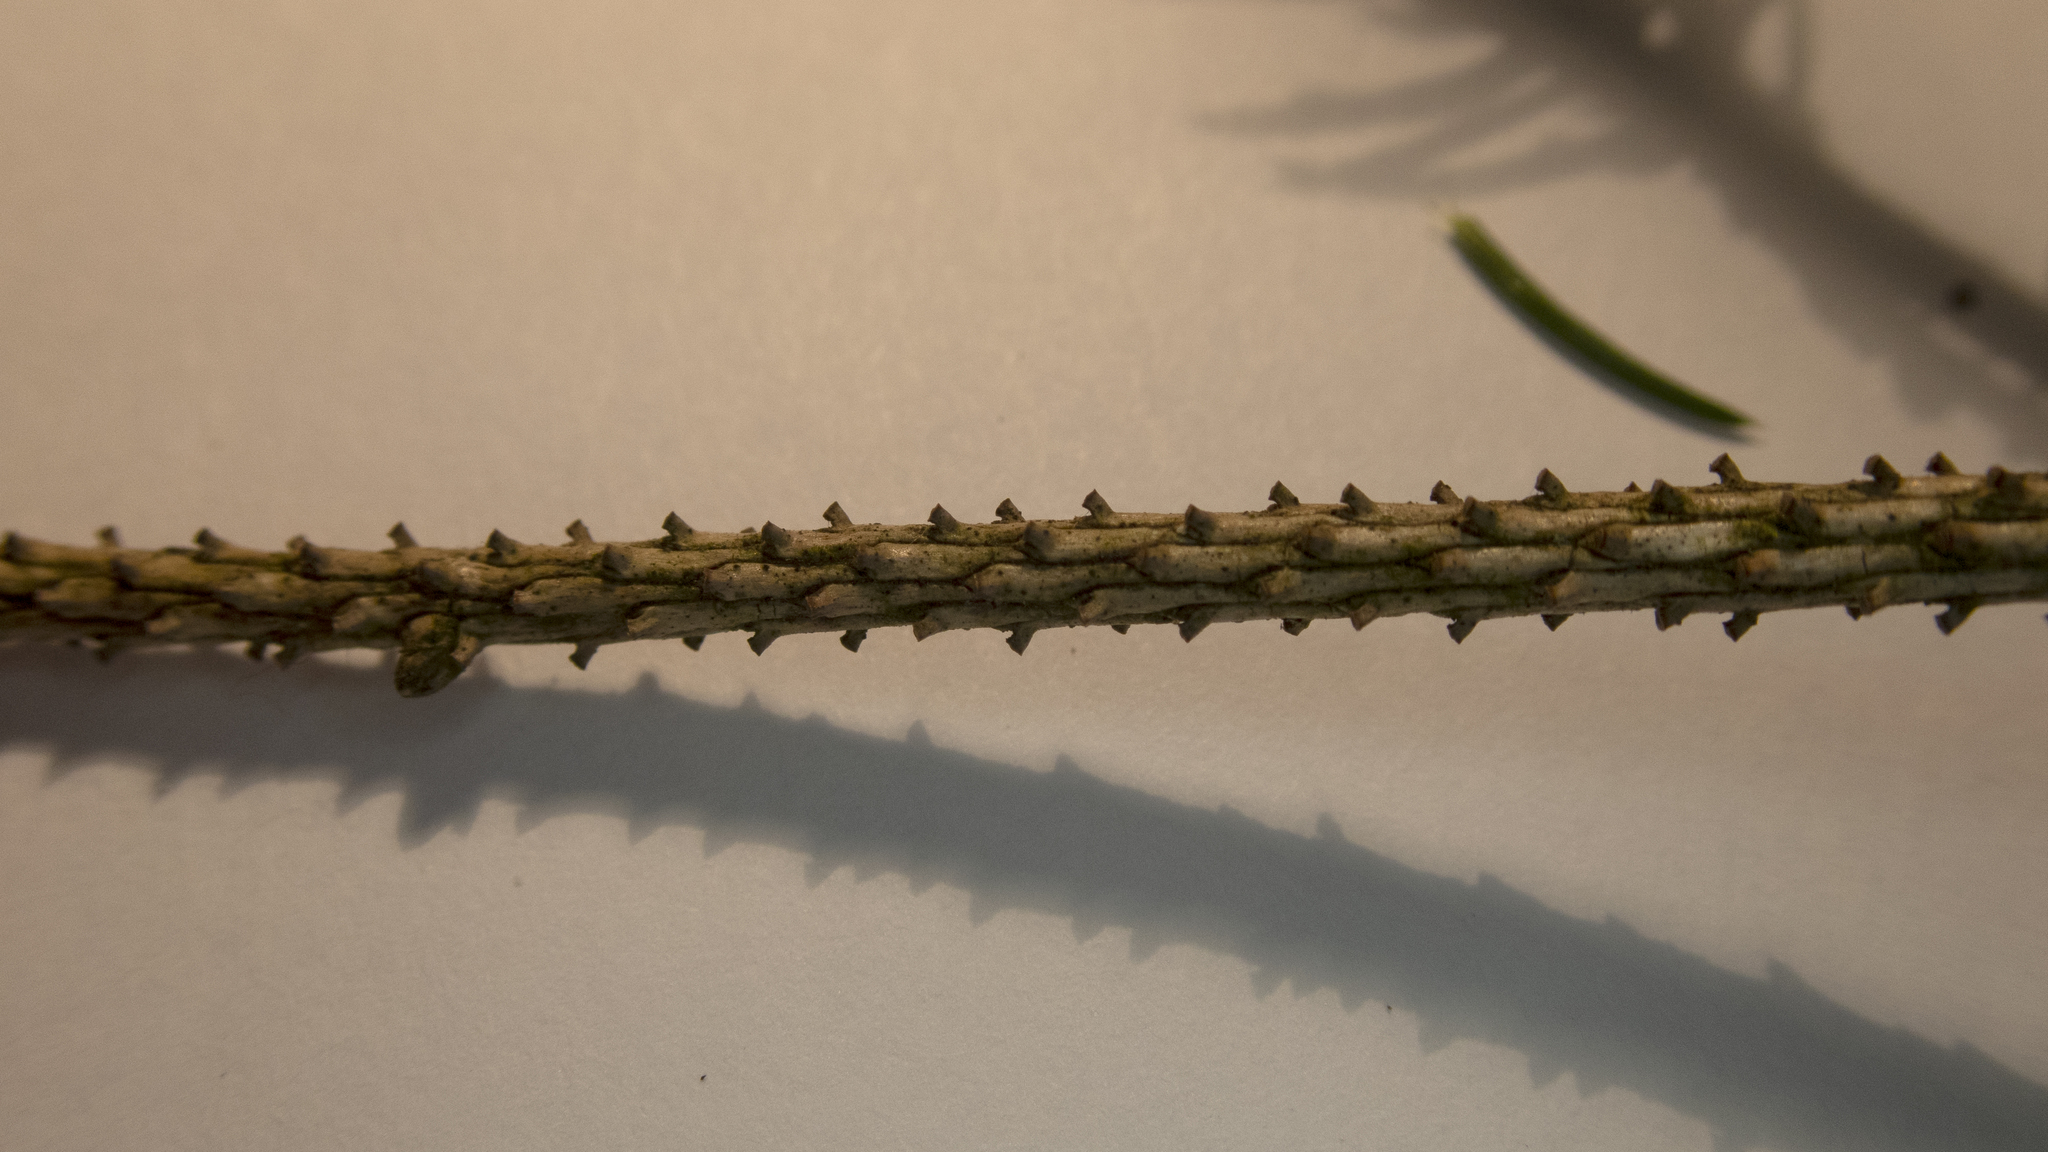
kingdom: Plantae
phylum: Tracheophyta
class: Pinopsida
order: Pinales
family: Pinaceae
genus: Picea
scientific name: Picea abies
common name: Norway spruce
